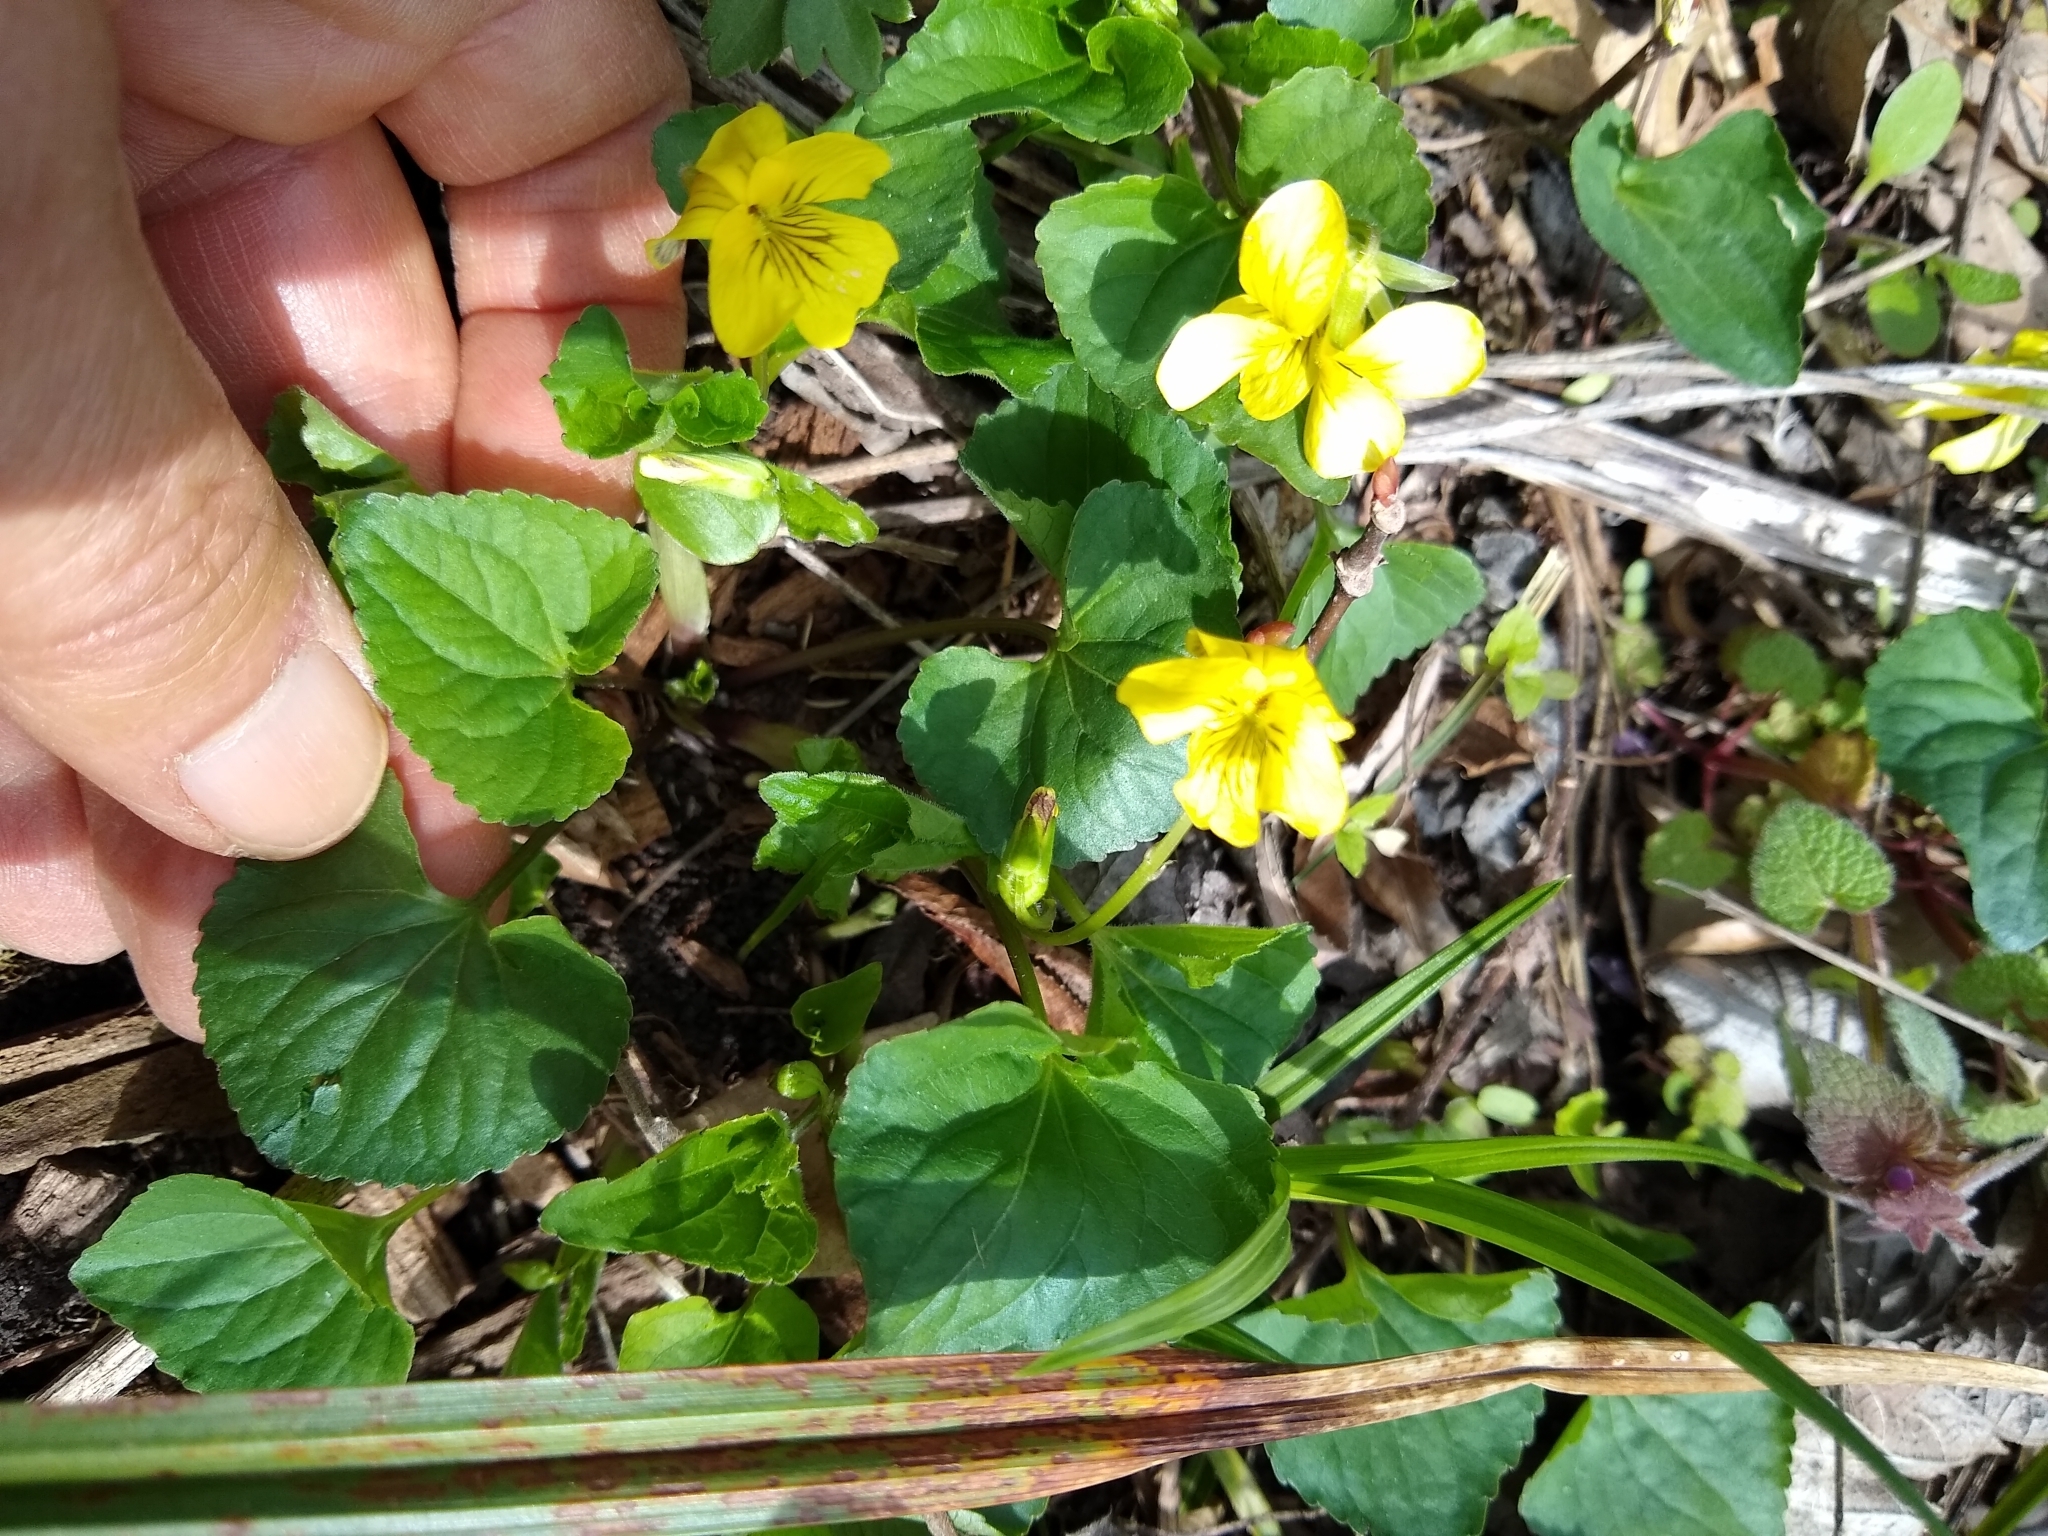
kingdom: Plantae
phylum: Tracheophyta
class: Magnoliopsida
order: Malpighiales
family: Violaceae
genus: Viola
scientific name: Viola eriocarpa
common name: Smooth yellow violet
